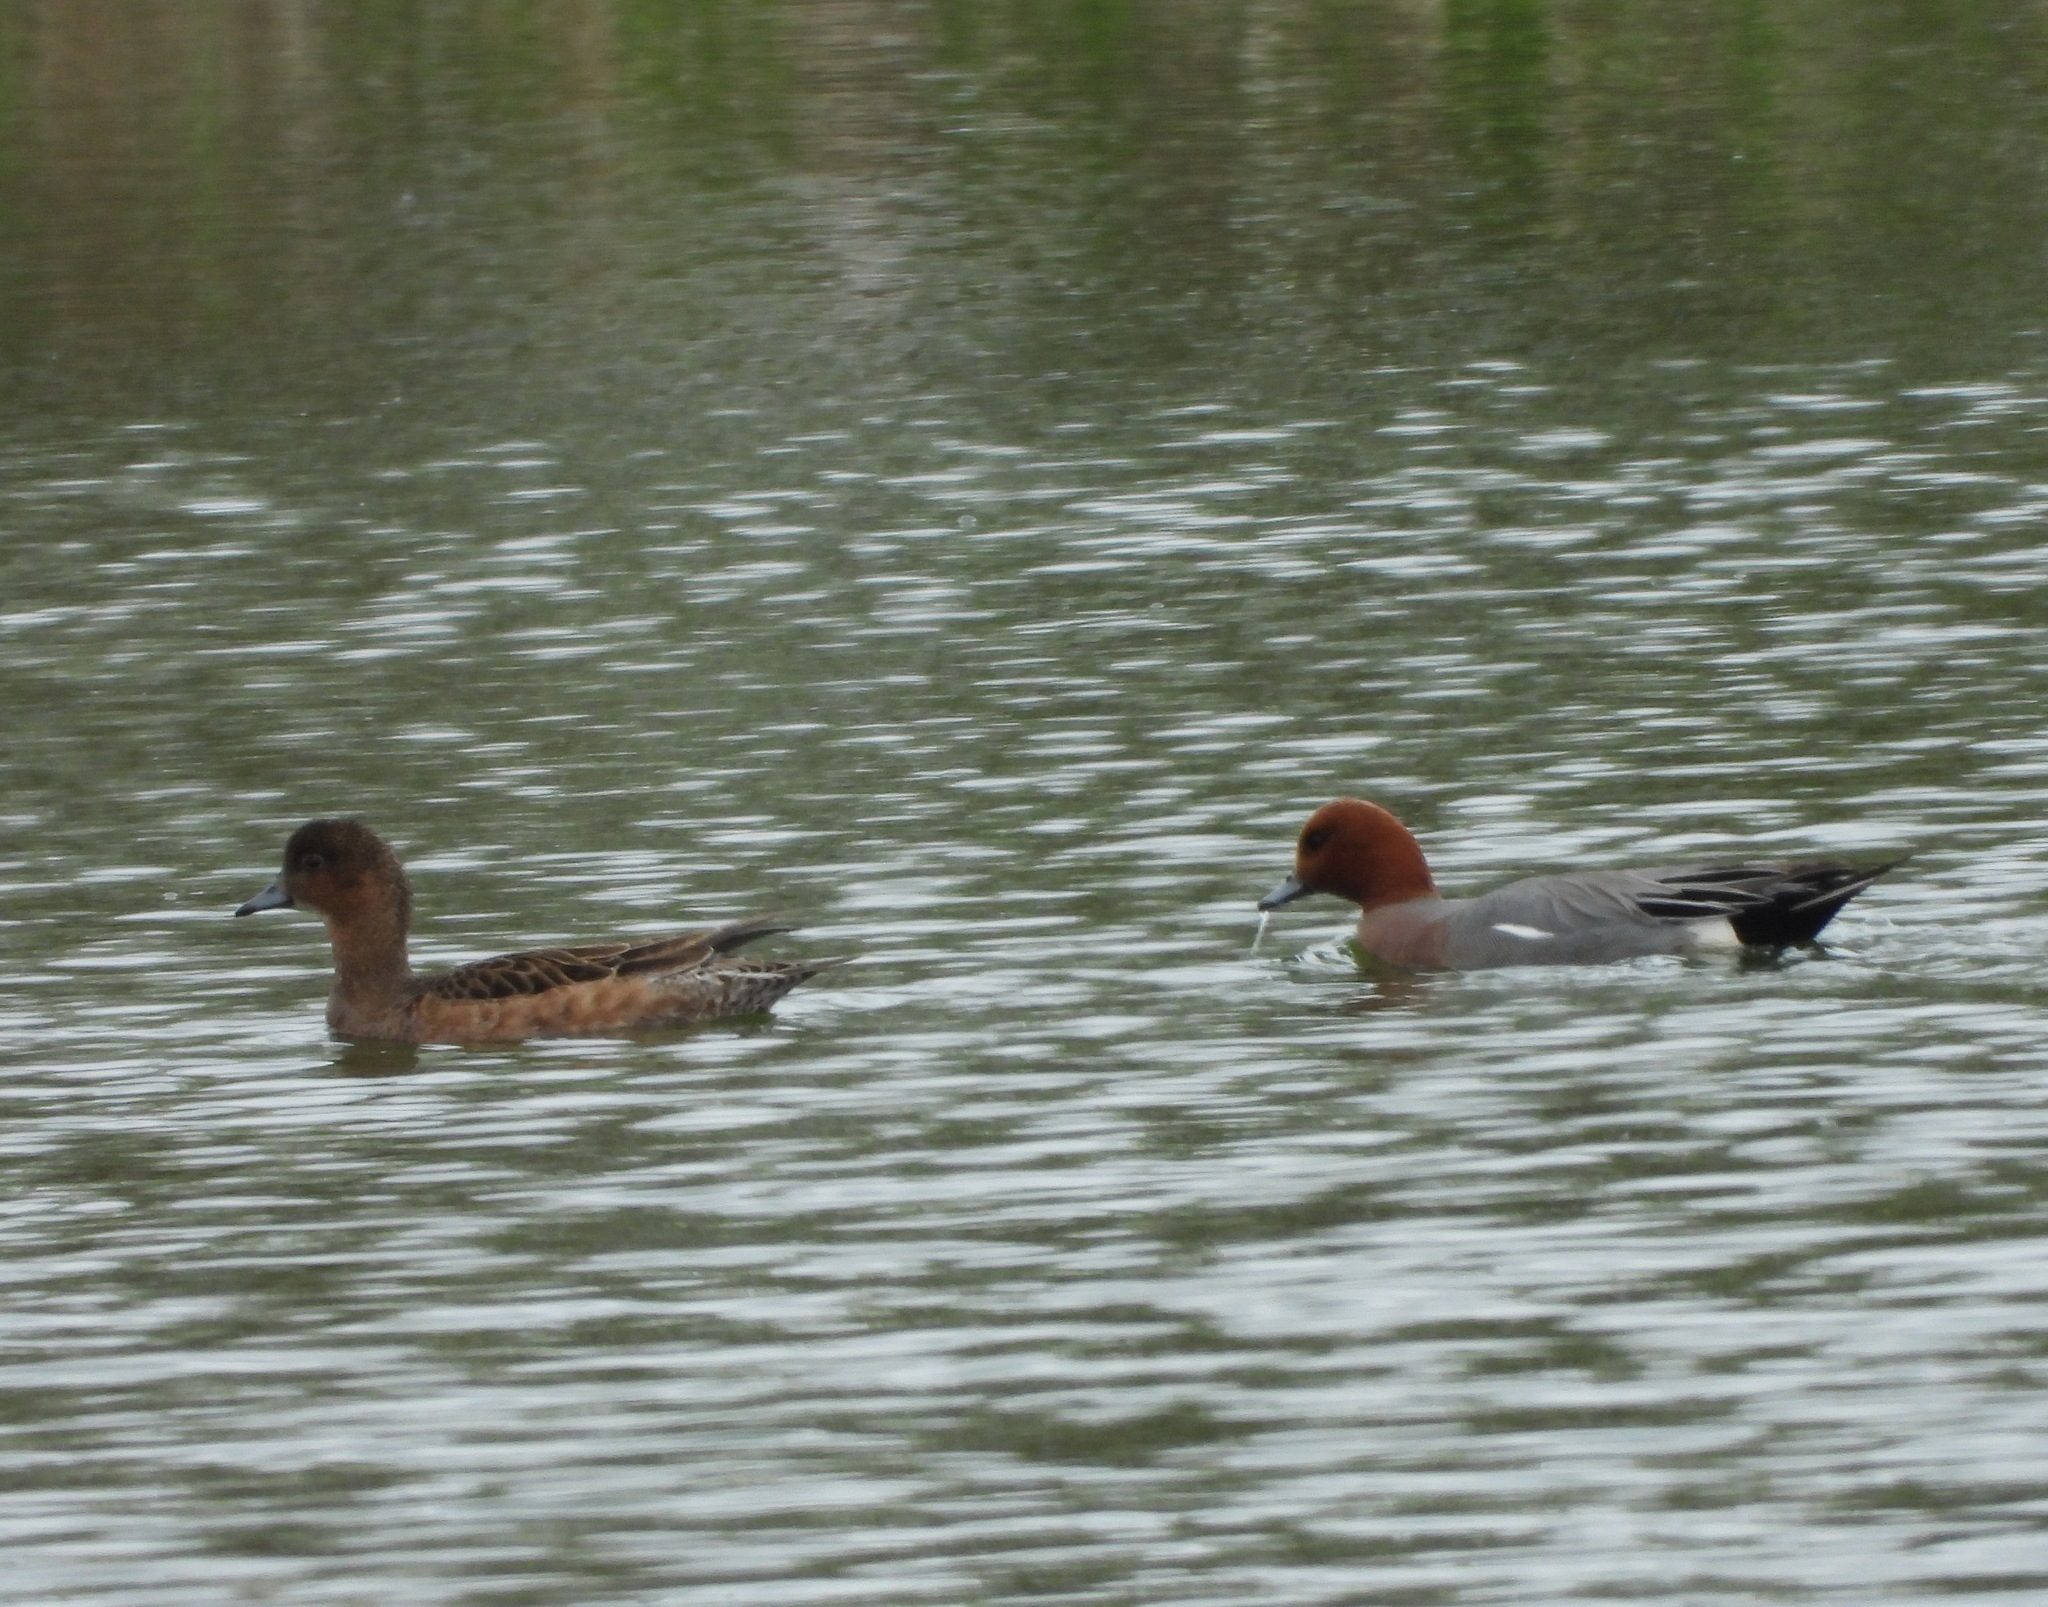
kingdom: Animalia
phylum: Chordata
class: Aves
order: Anseriformes
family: Anatidae
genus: Mareca
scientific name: Mareca penelope
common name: Eurasian wigeon
